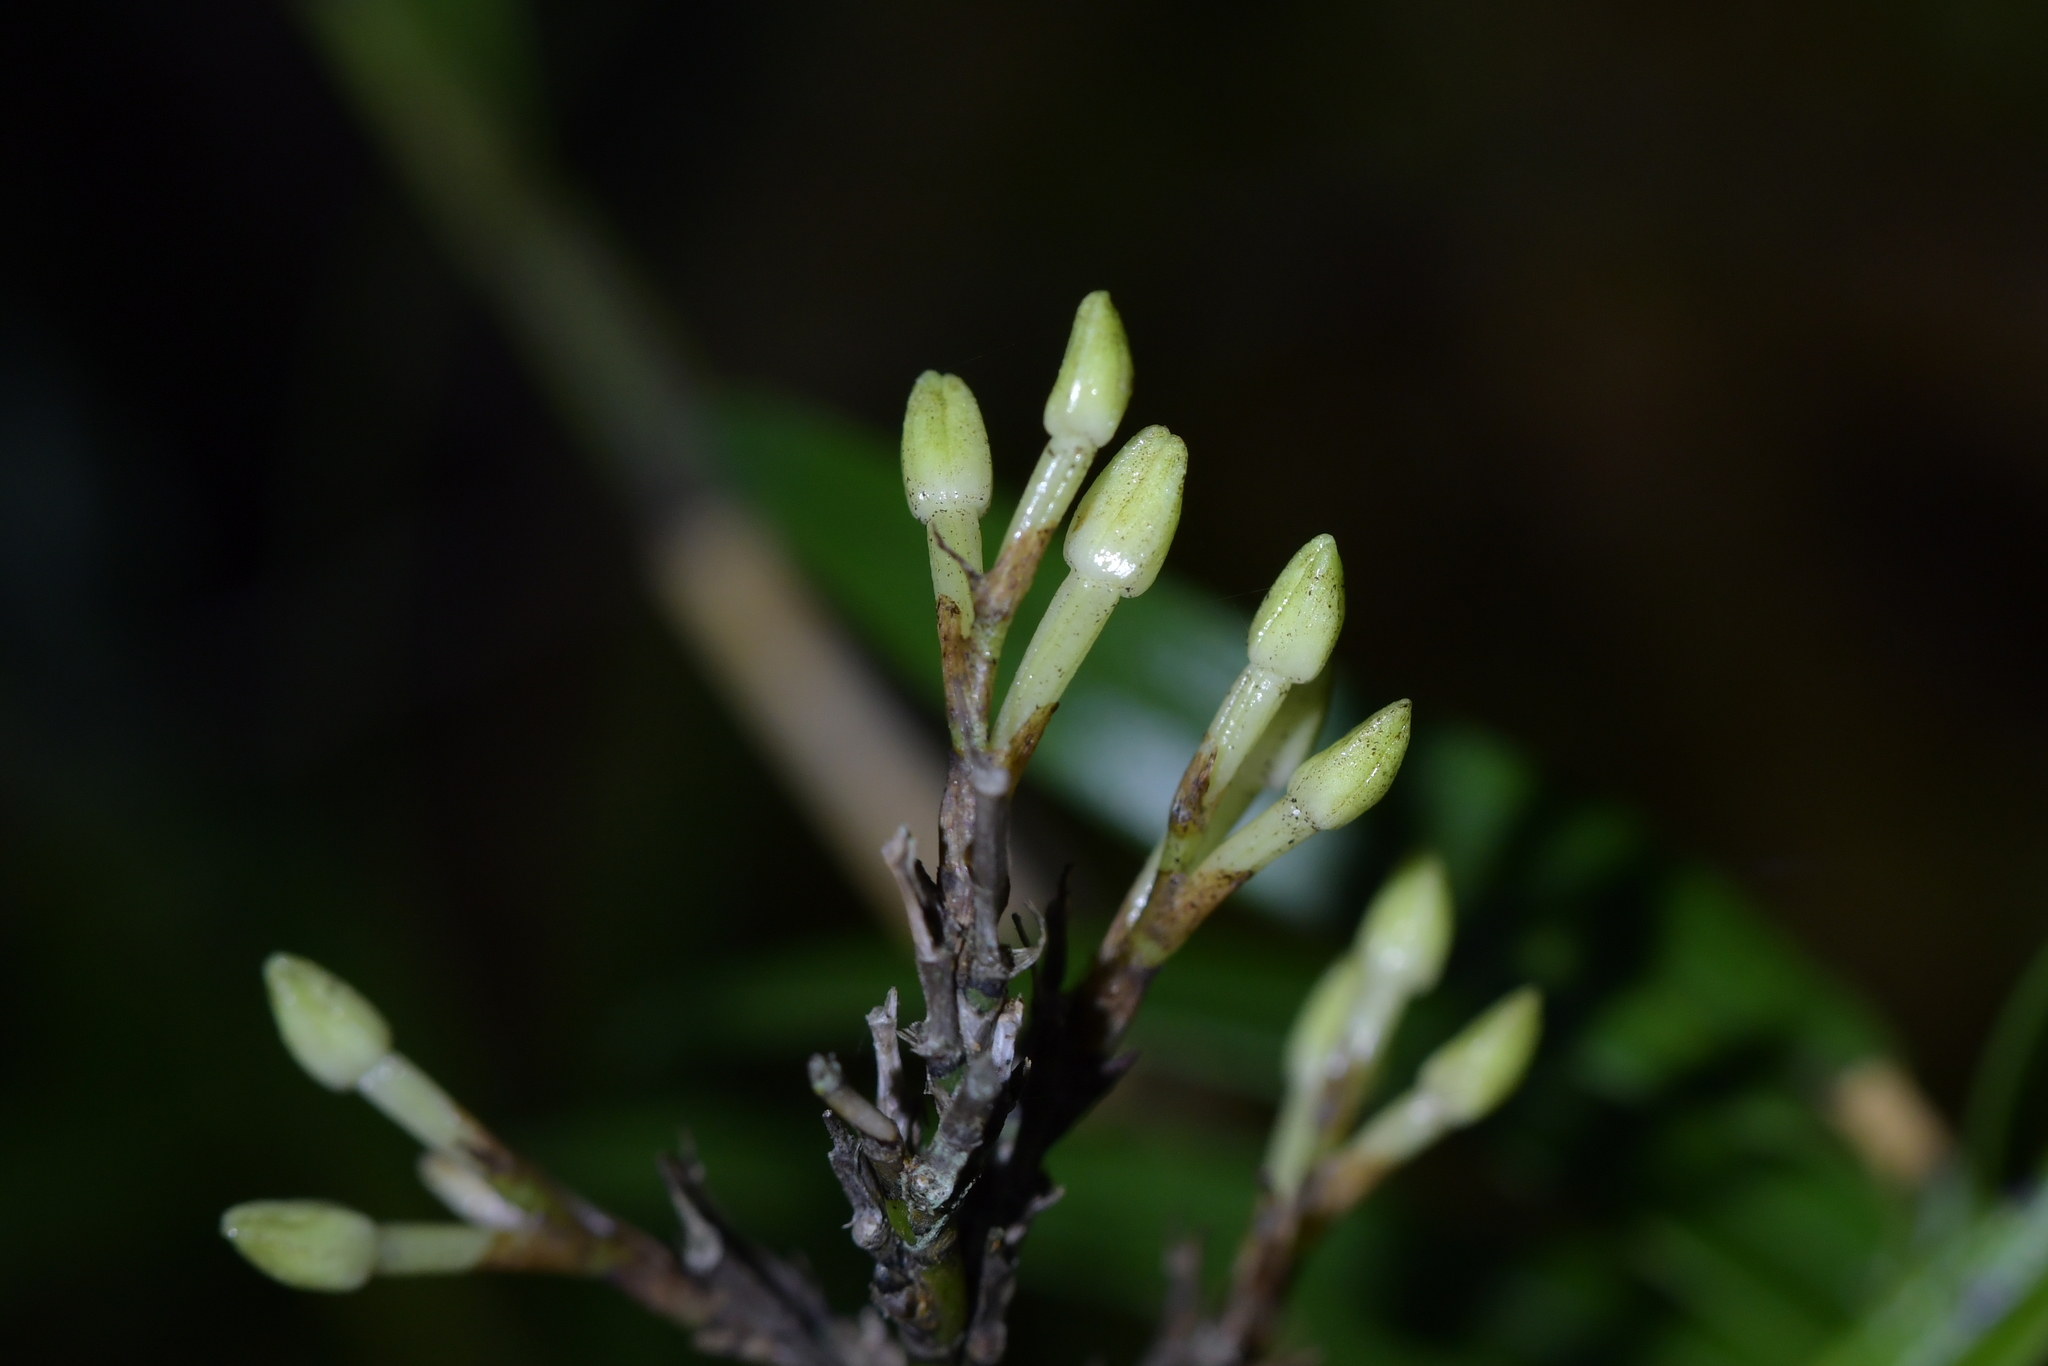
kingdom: Plantae
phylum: Tracheophyta
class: Liliopsida
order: Asparagales
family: Orchidaceae
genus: Earina
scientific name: Earina autumnalis
